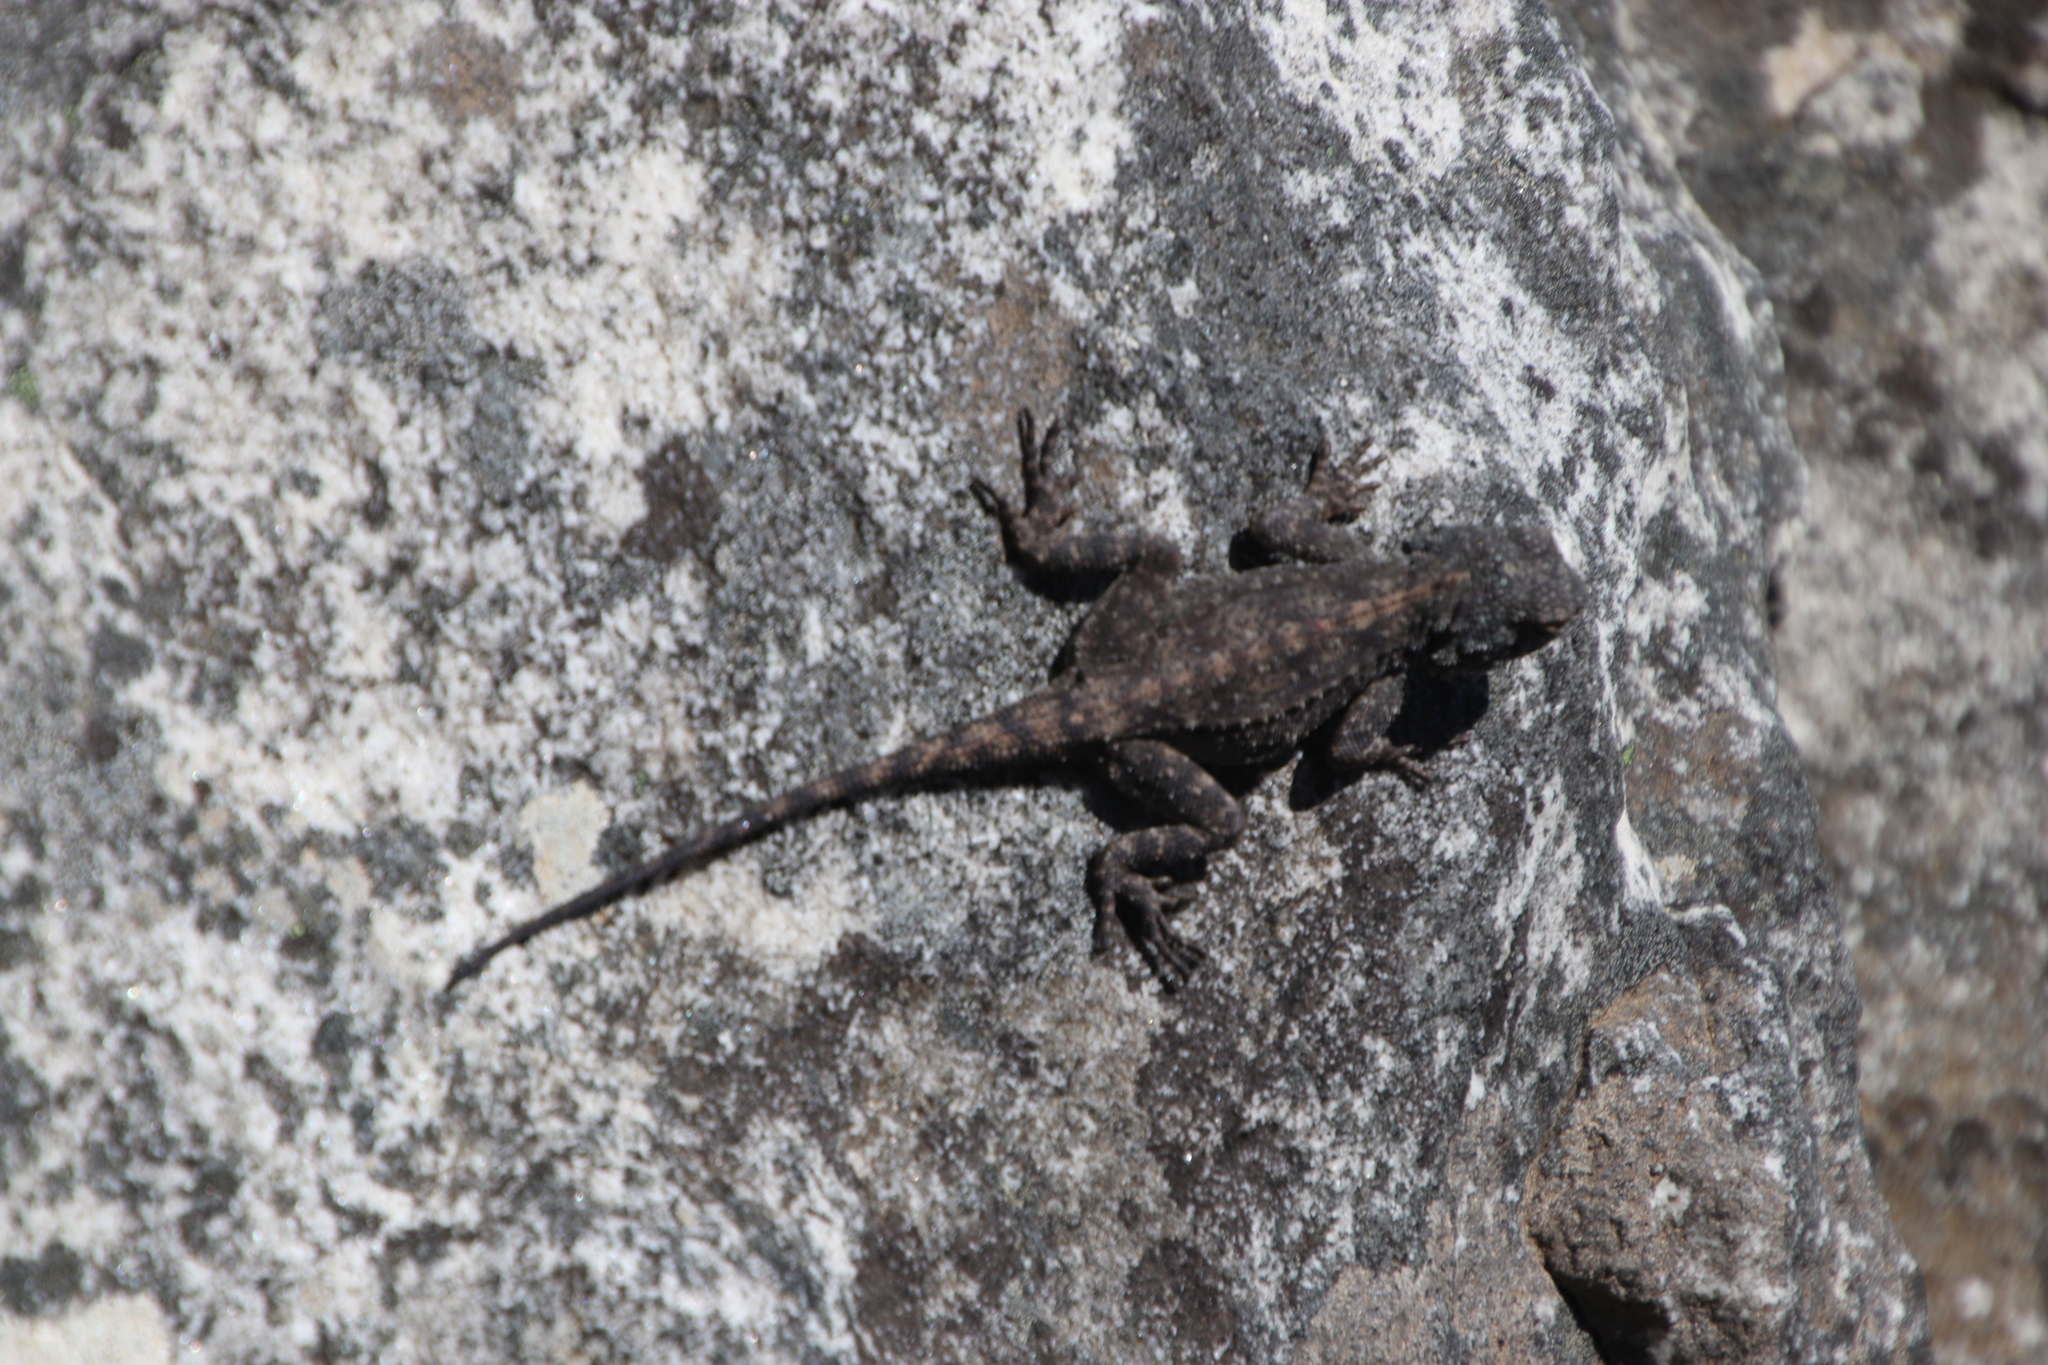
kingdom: Animalia
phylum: Chordata
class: Squamata
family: Agamidae
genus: Agama
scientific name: Agama atra
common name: Southern african rock agama
